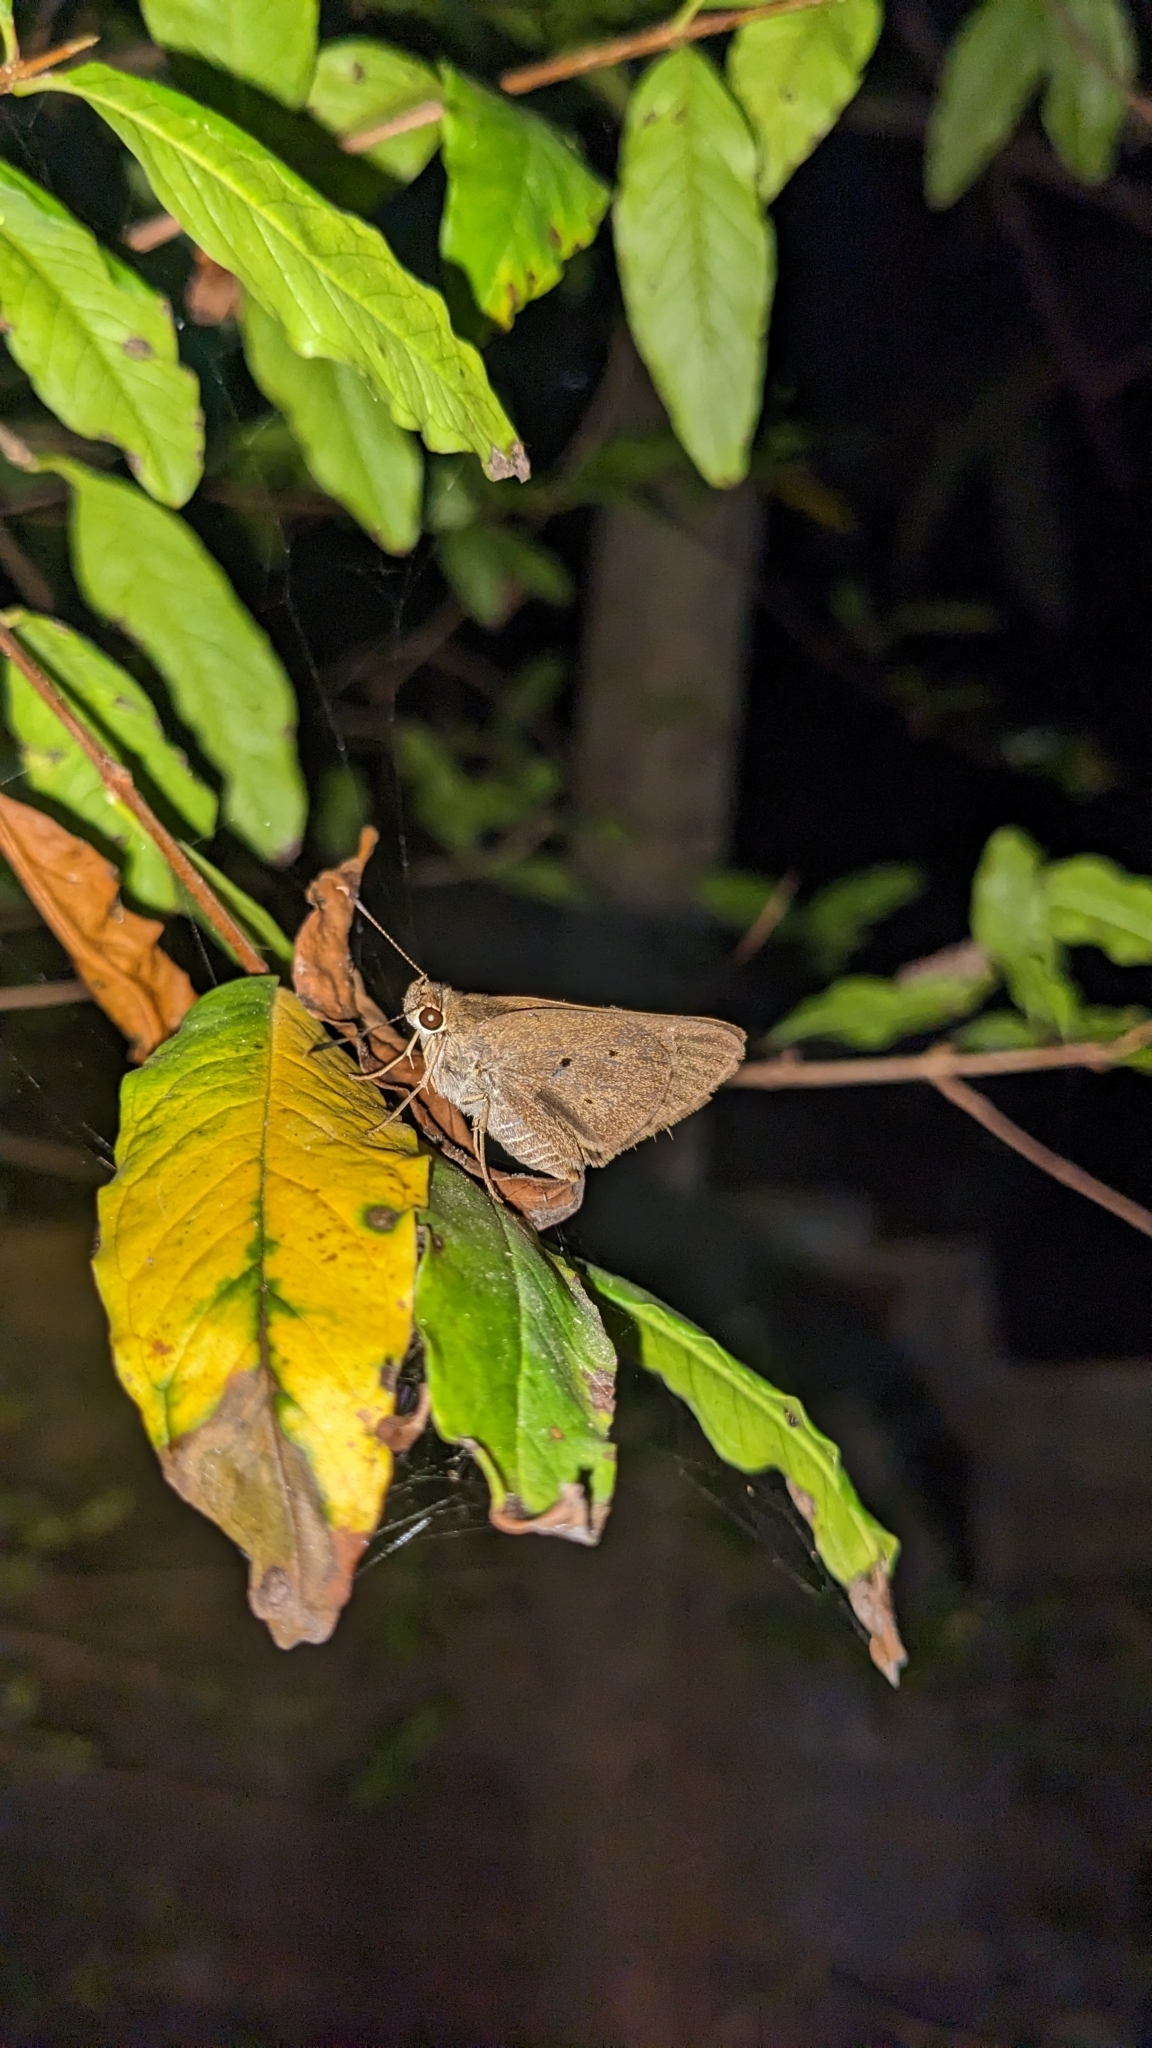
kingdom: Animalia
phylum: Arthropoda
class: Insecta
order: Lepidoptera
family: Hesperiidae
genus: Suastus
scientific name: Suastus gremius
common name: Indian palm bob
